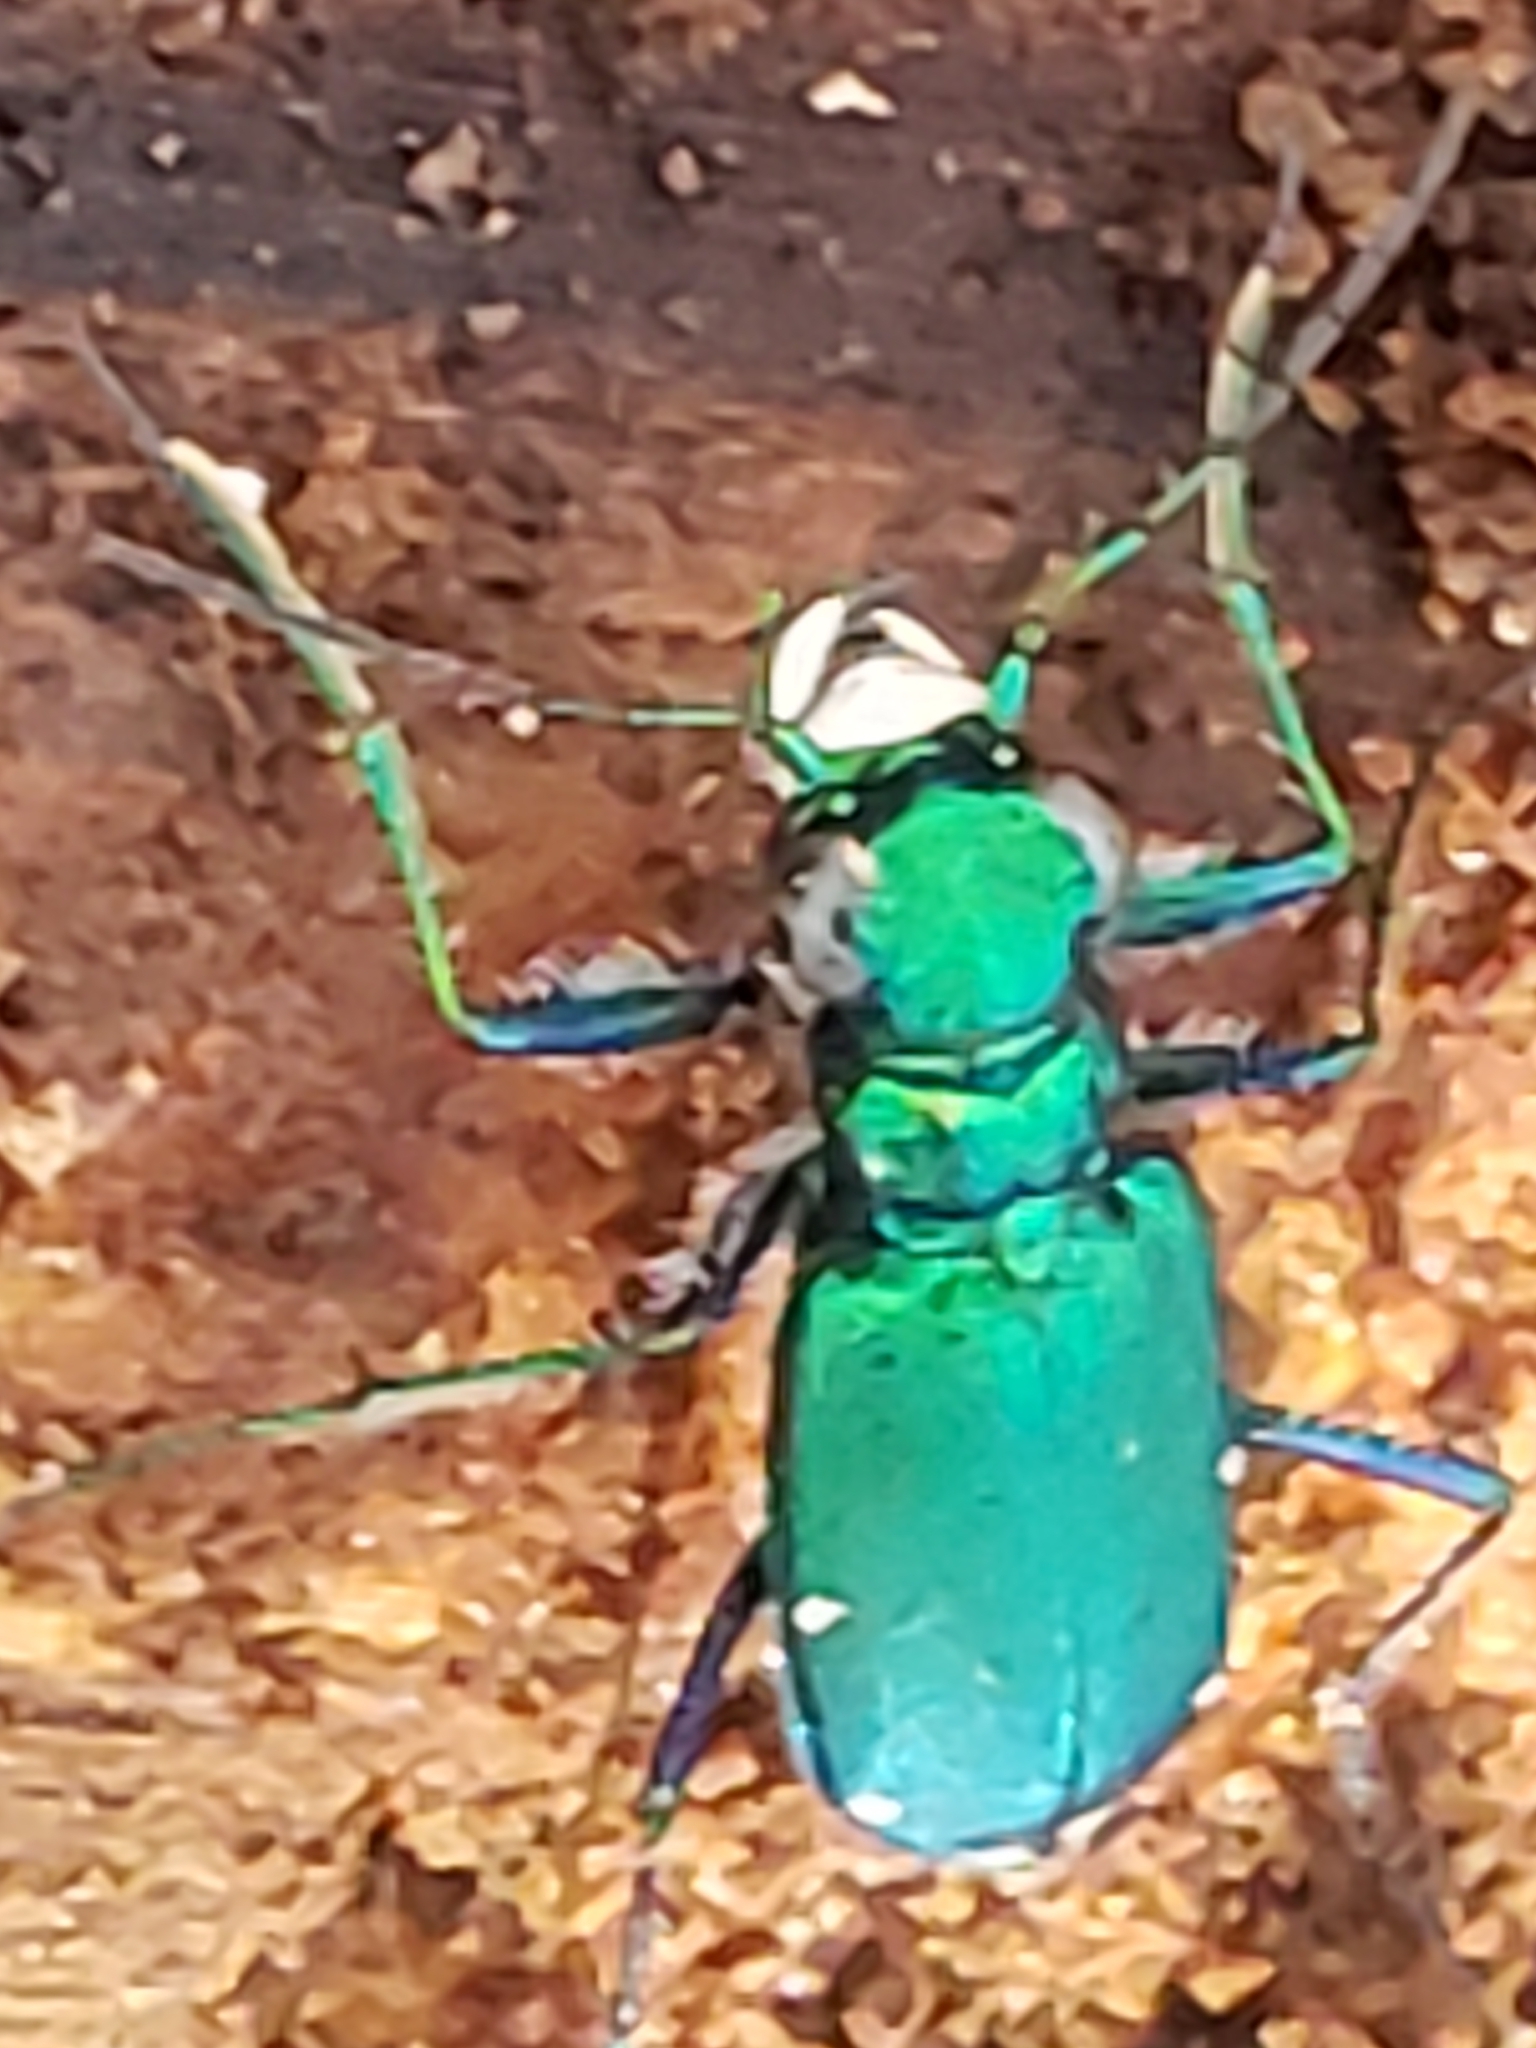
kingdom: Animalia
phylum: Arthropoda
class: Insecta
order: Coleoptera
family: Carabidae
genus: Cicindela
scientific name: Cicindela sexguttata
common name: Six-spotted tiger beetle
